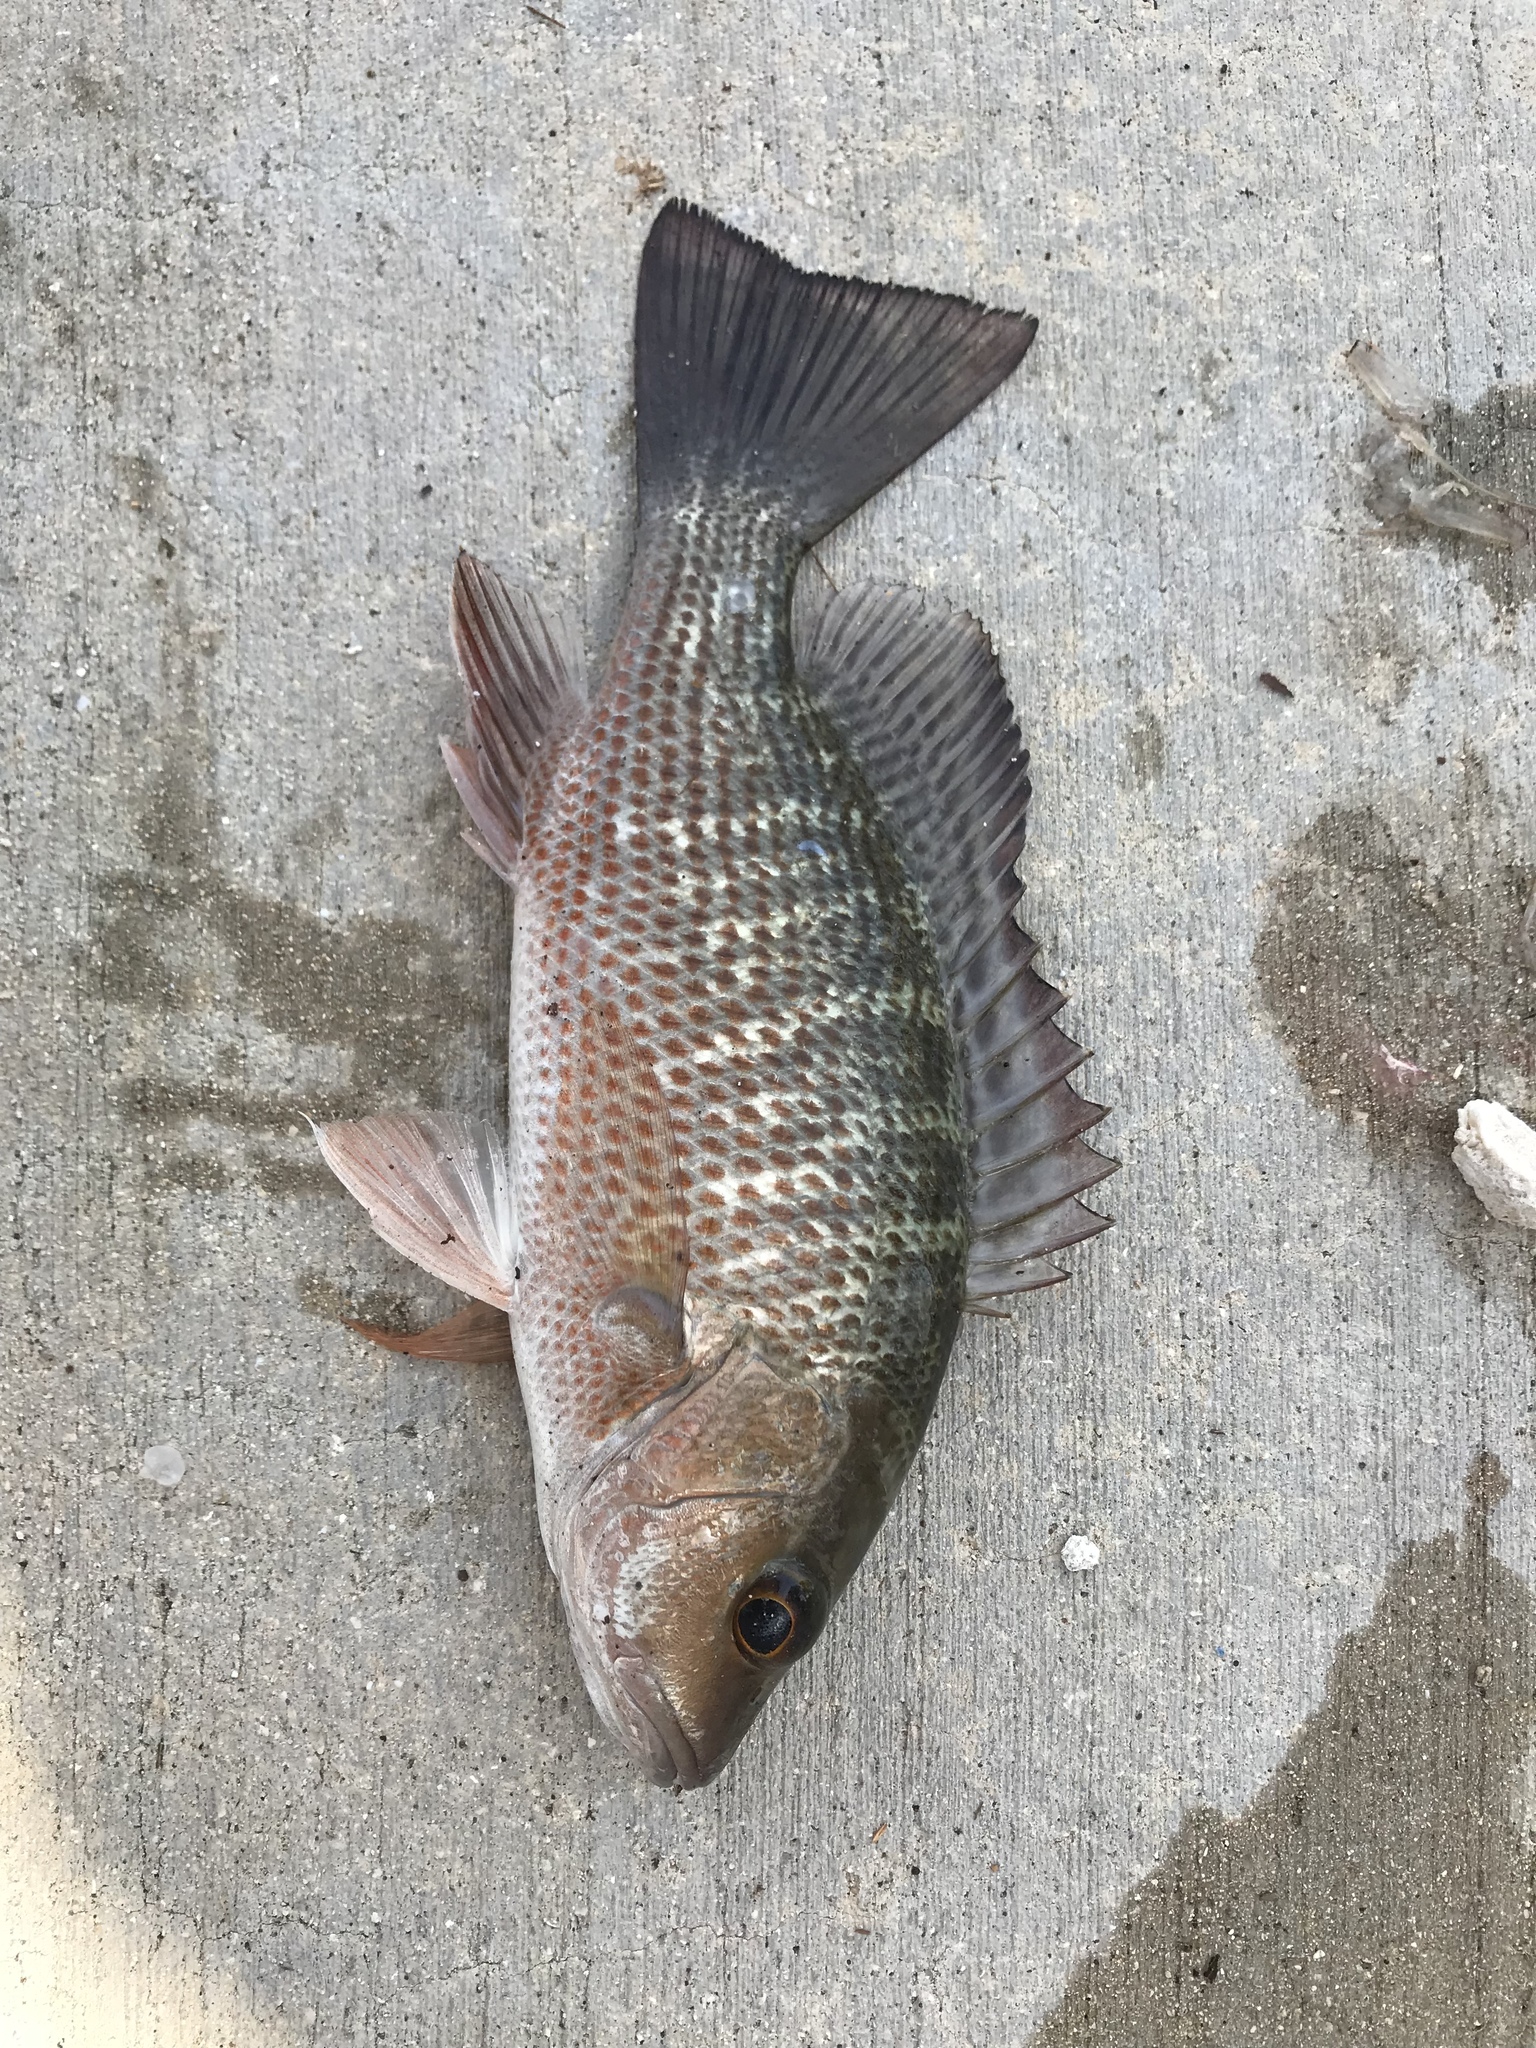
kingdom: Animalia
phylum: Chordata
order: Perciformes
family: Lutjanidae
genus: Lutjanus
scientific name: Lutjanus griseus
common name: Gray snapper
